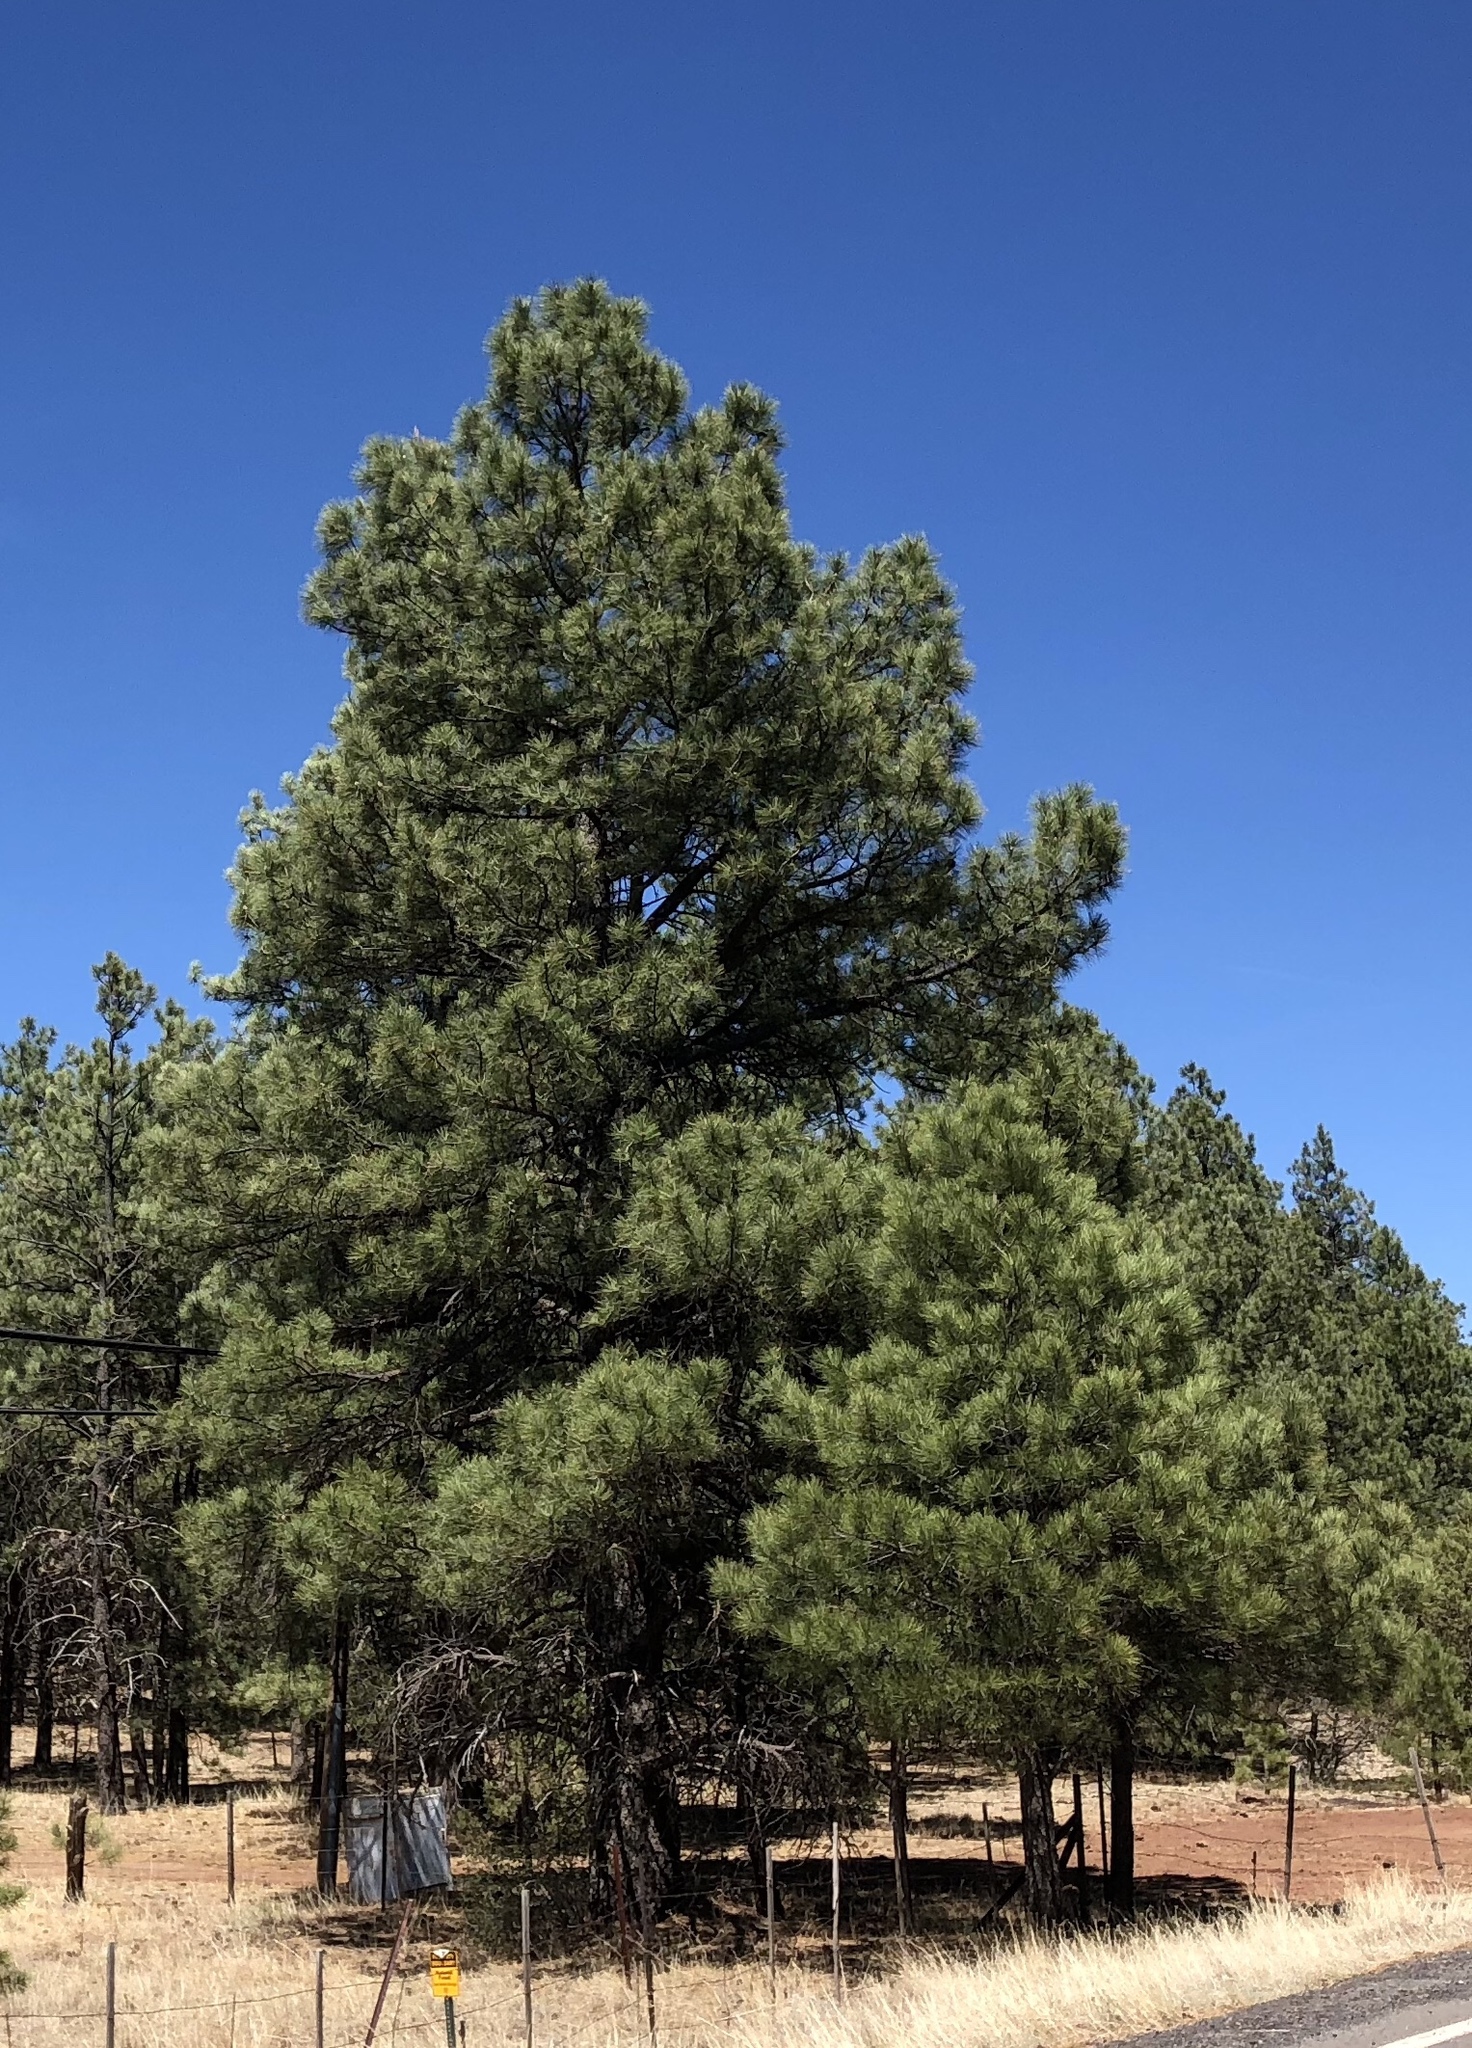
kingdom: Plantae
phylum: Tracheophyta
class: Pinopsida
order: Pinales
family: Pinaceae
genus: Pinus
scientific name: Pinus ponderosa
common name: Western yellow-pine
